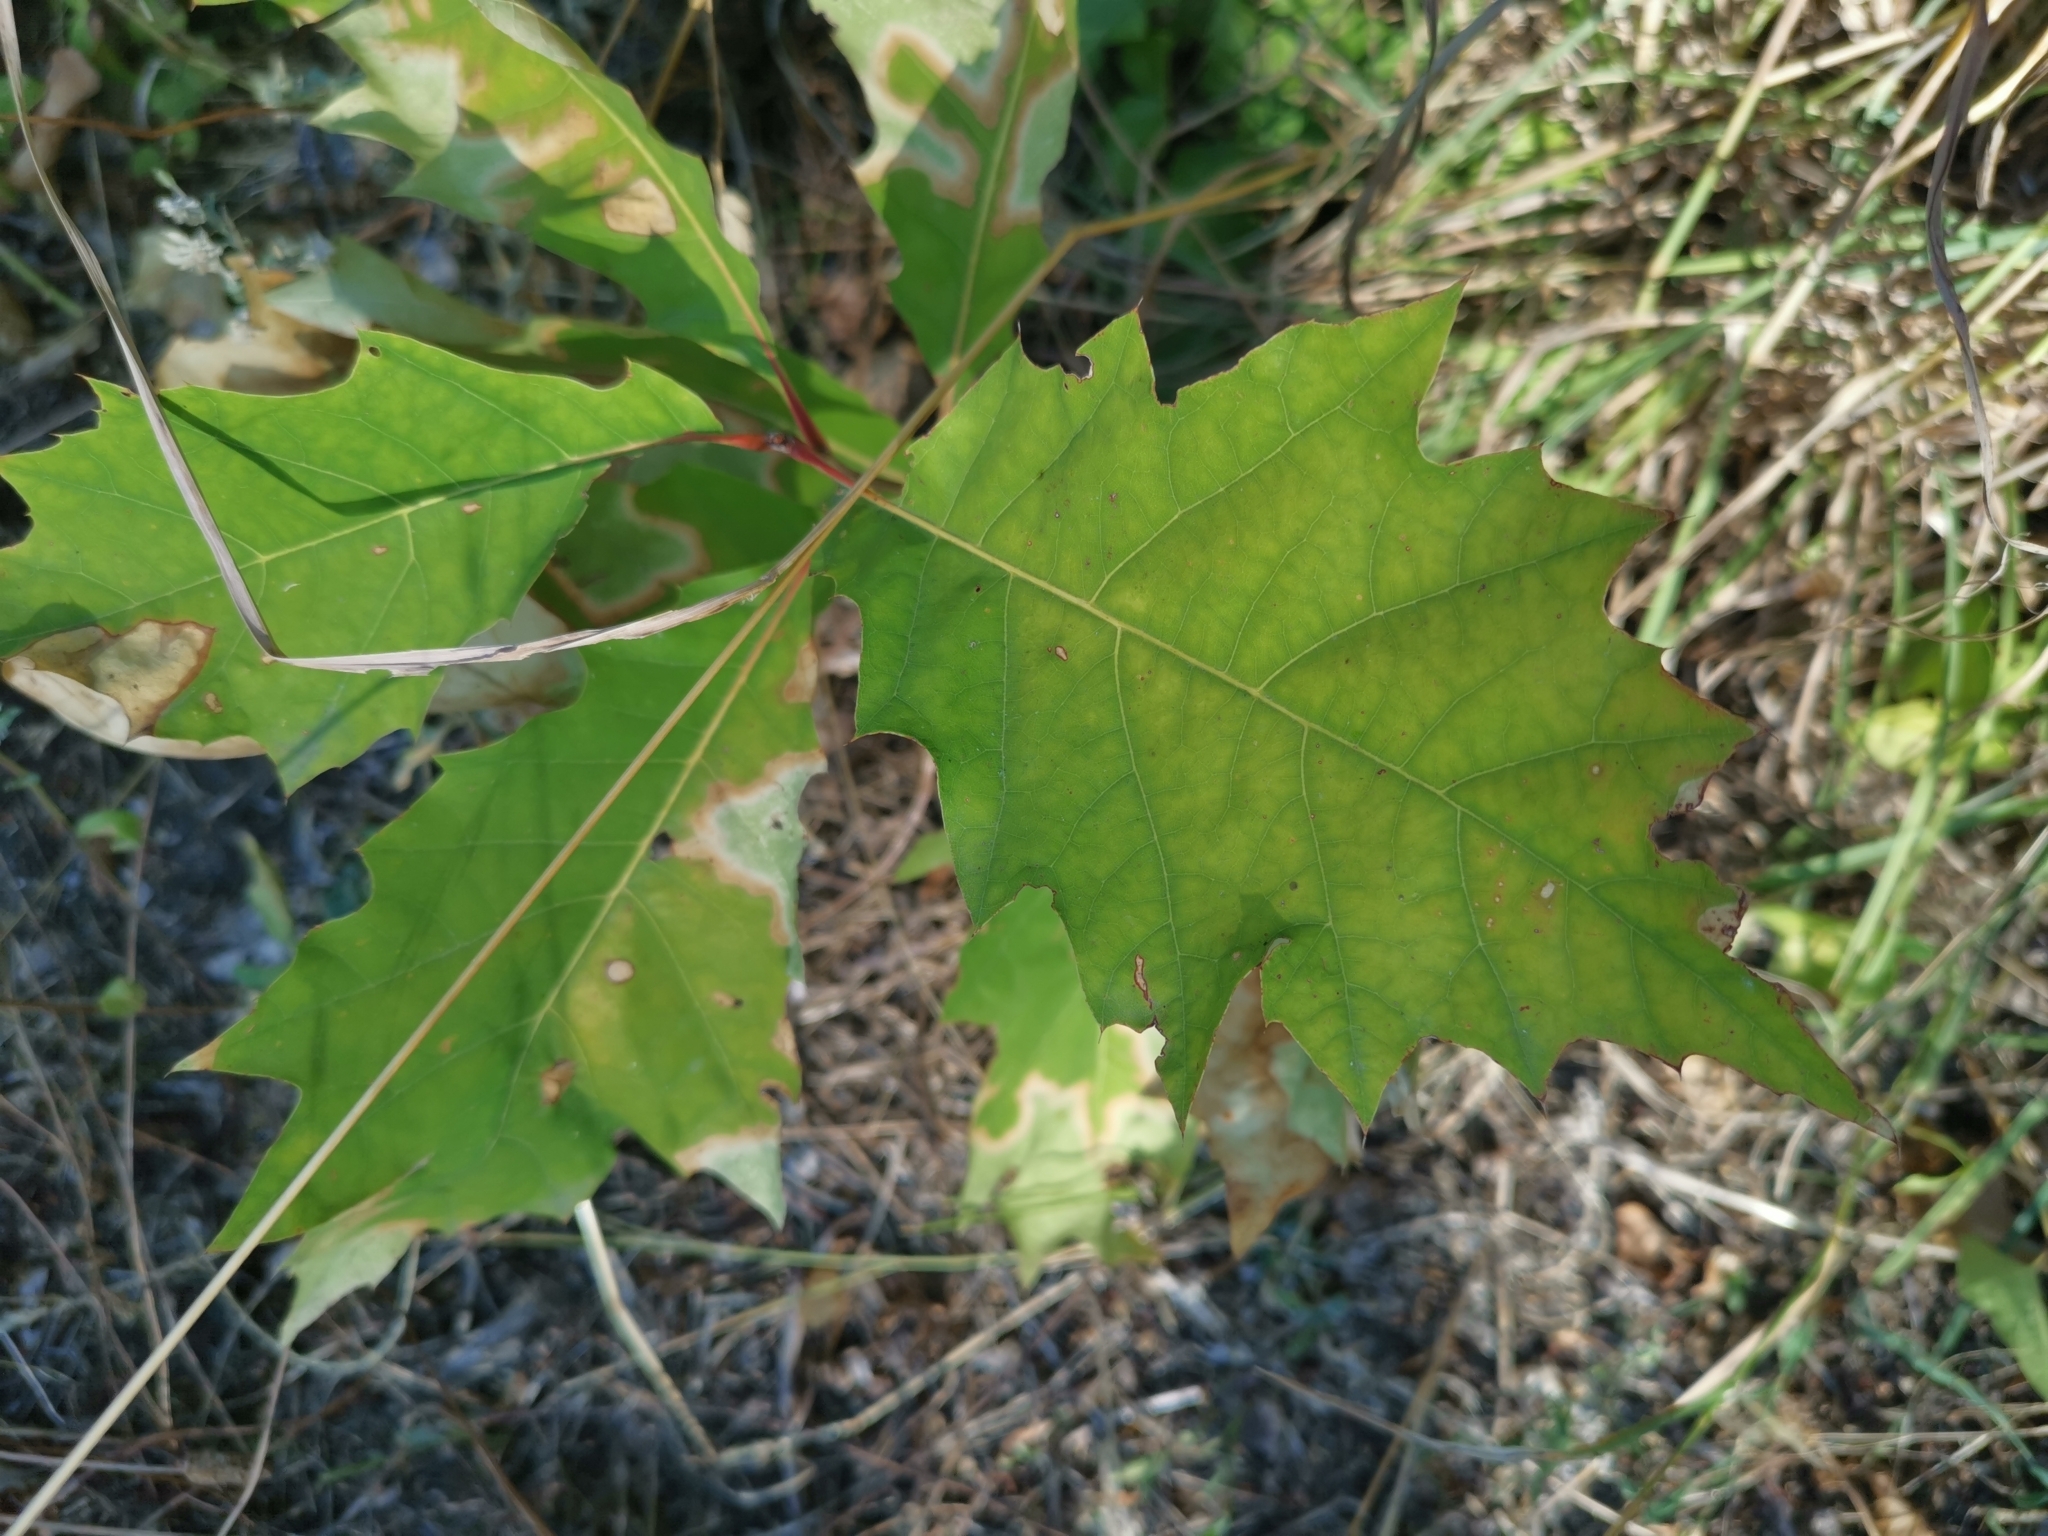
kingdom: Plantae
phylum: Tracheophyta
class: Magnoliopsida
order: Fagales
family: Fagaceae
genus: Quercus
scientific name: Quercus rubra
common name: Red oak
